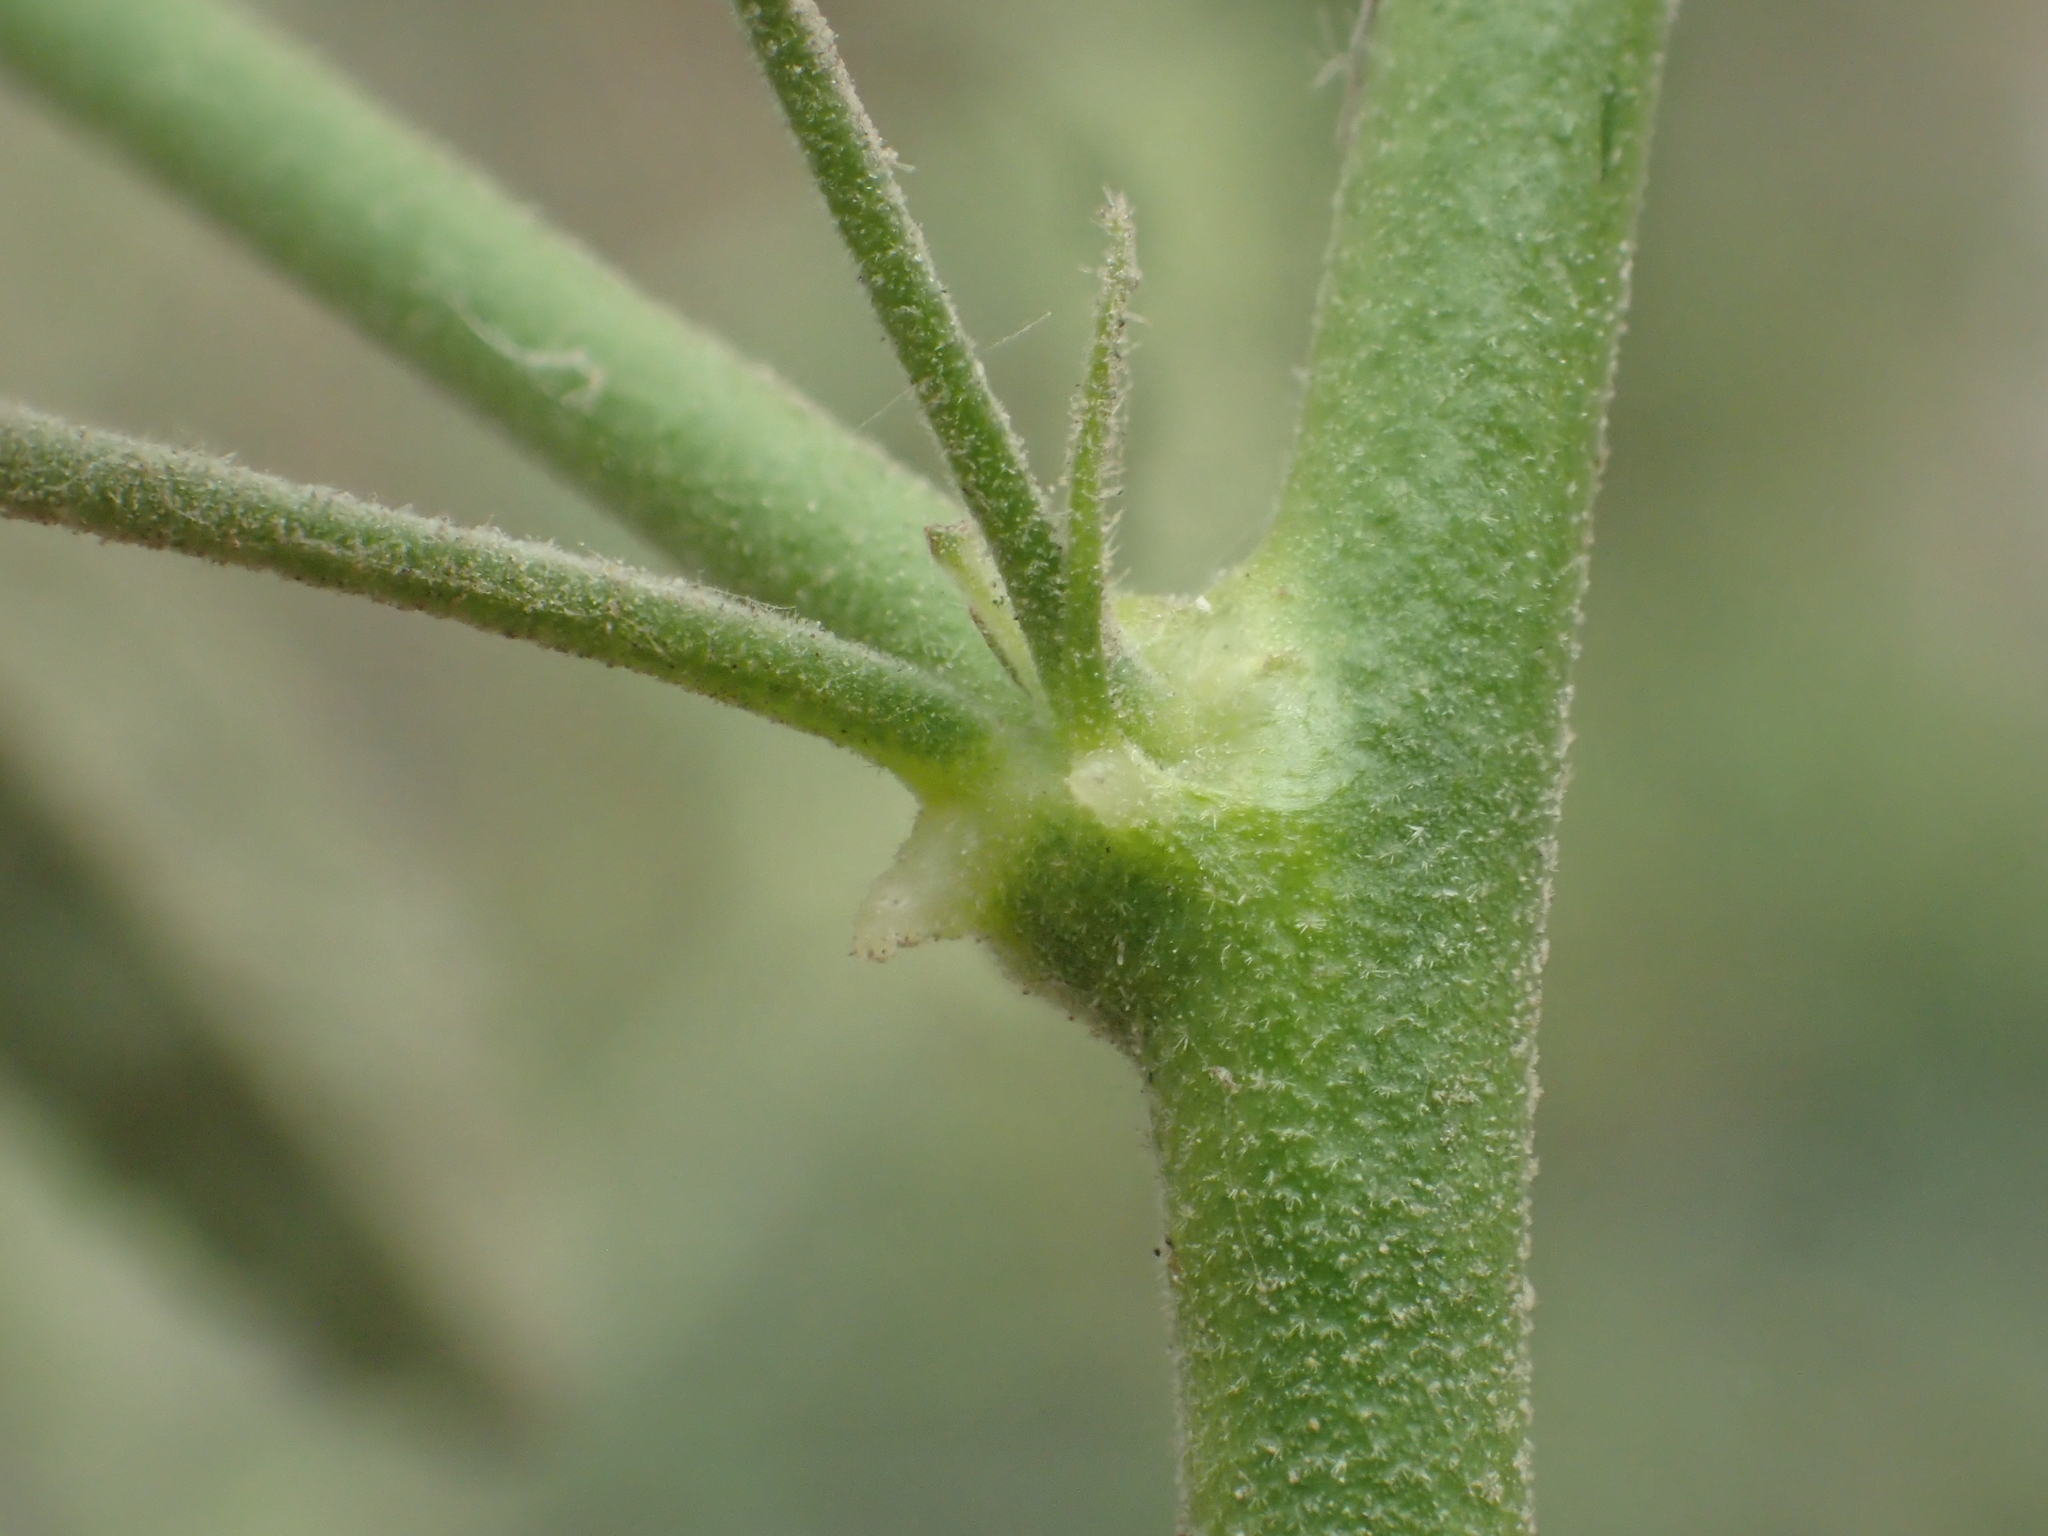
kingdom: Plantae
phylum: Tracheophyta
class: Magnoliopsida
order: Malvales
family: Malvaceae
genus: Sida
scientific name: Sida spinosa
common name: Prickly fanpetals
